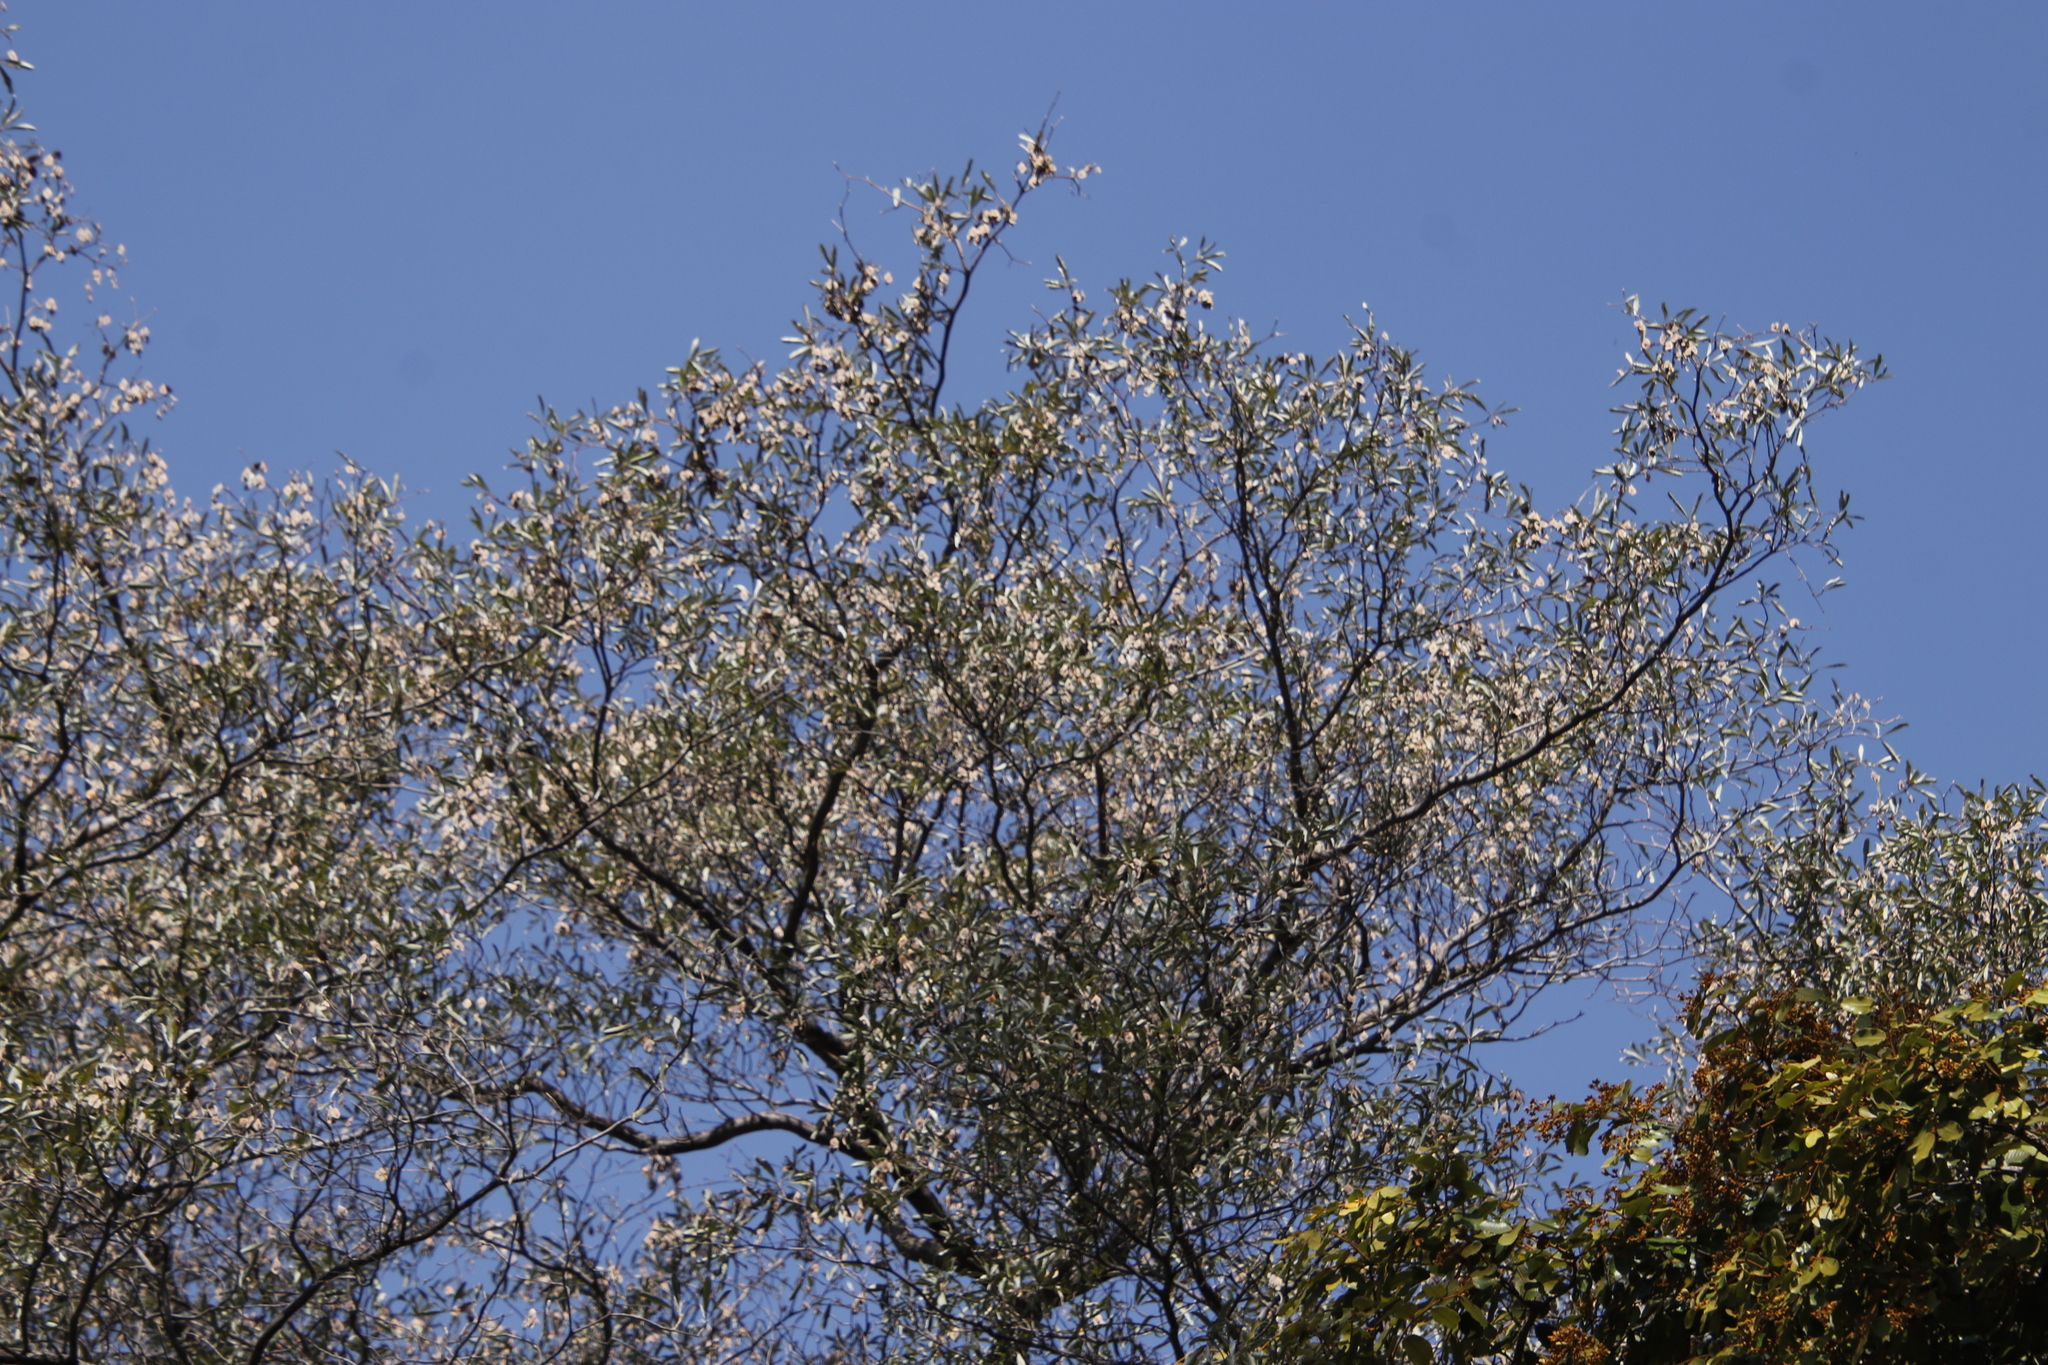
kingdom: Plantae
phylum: Tracheophyta
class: Magnoliopsida
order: Myrtales
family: Combretaceae
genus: Terminalia
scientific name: Terminalia sericea
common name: Clusterleaf
